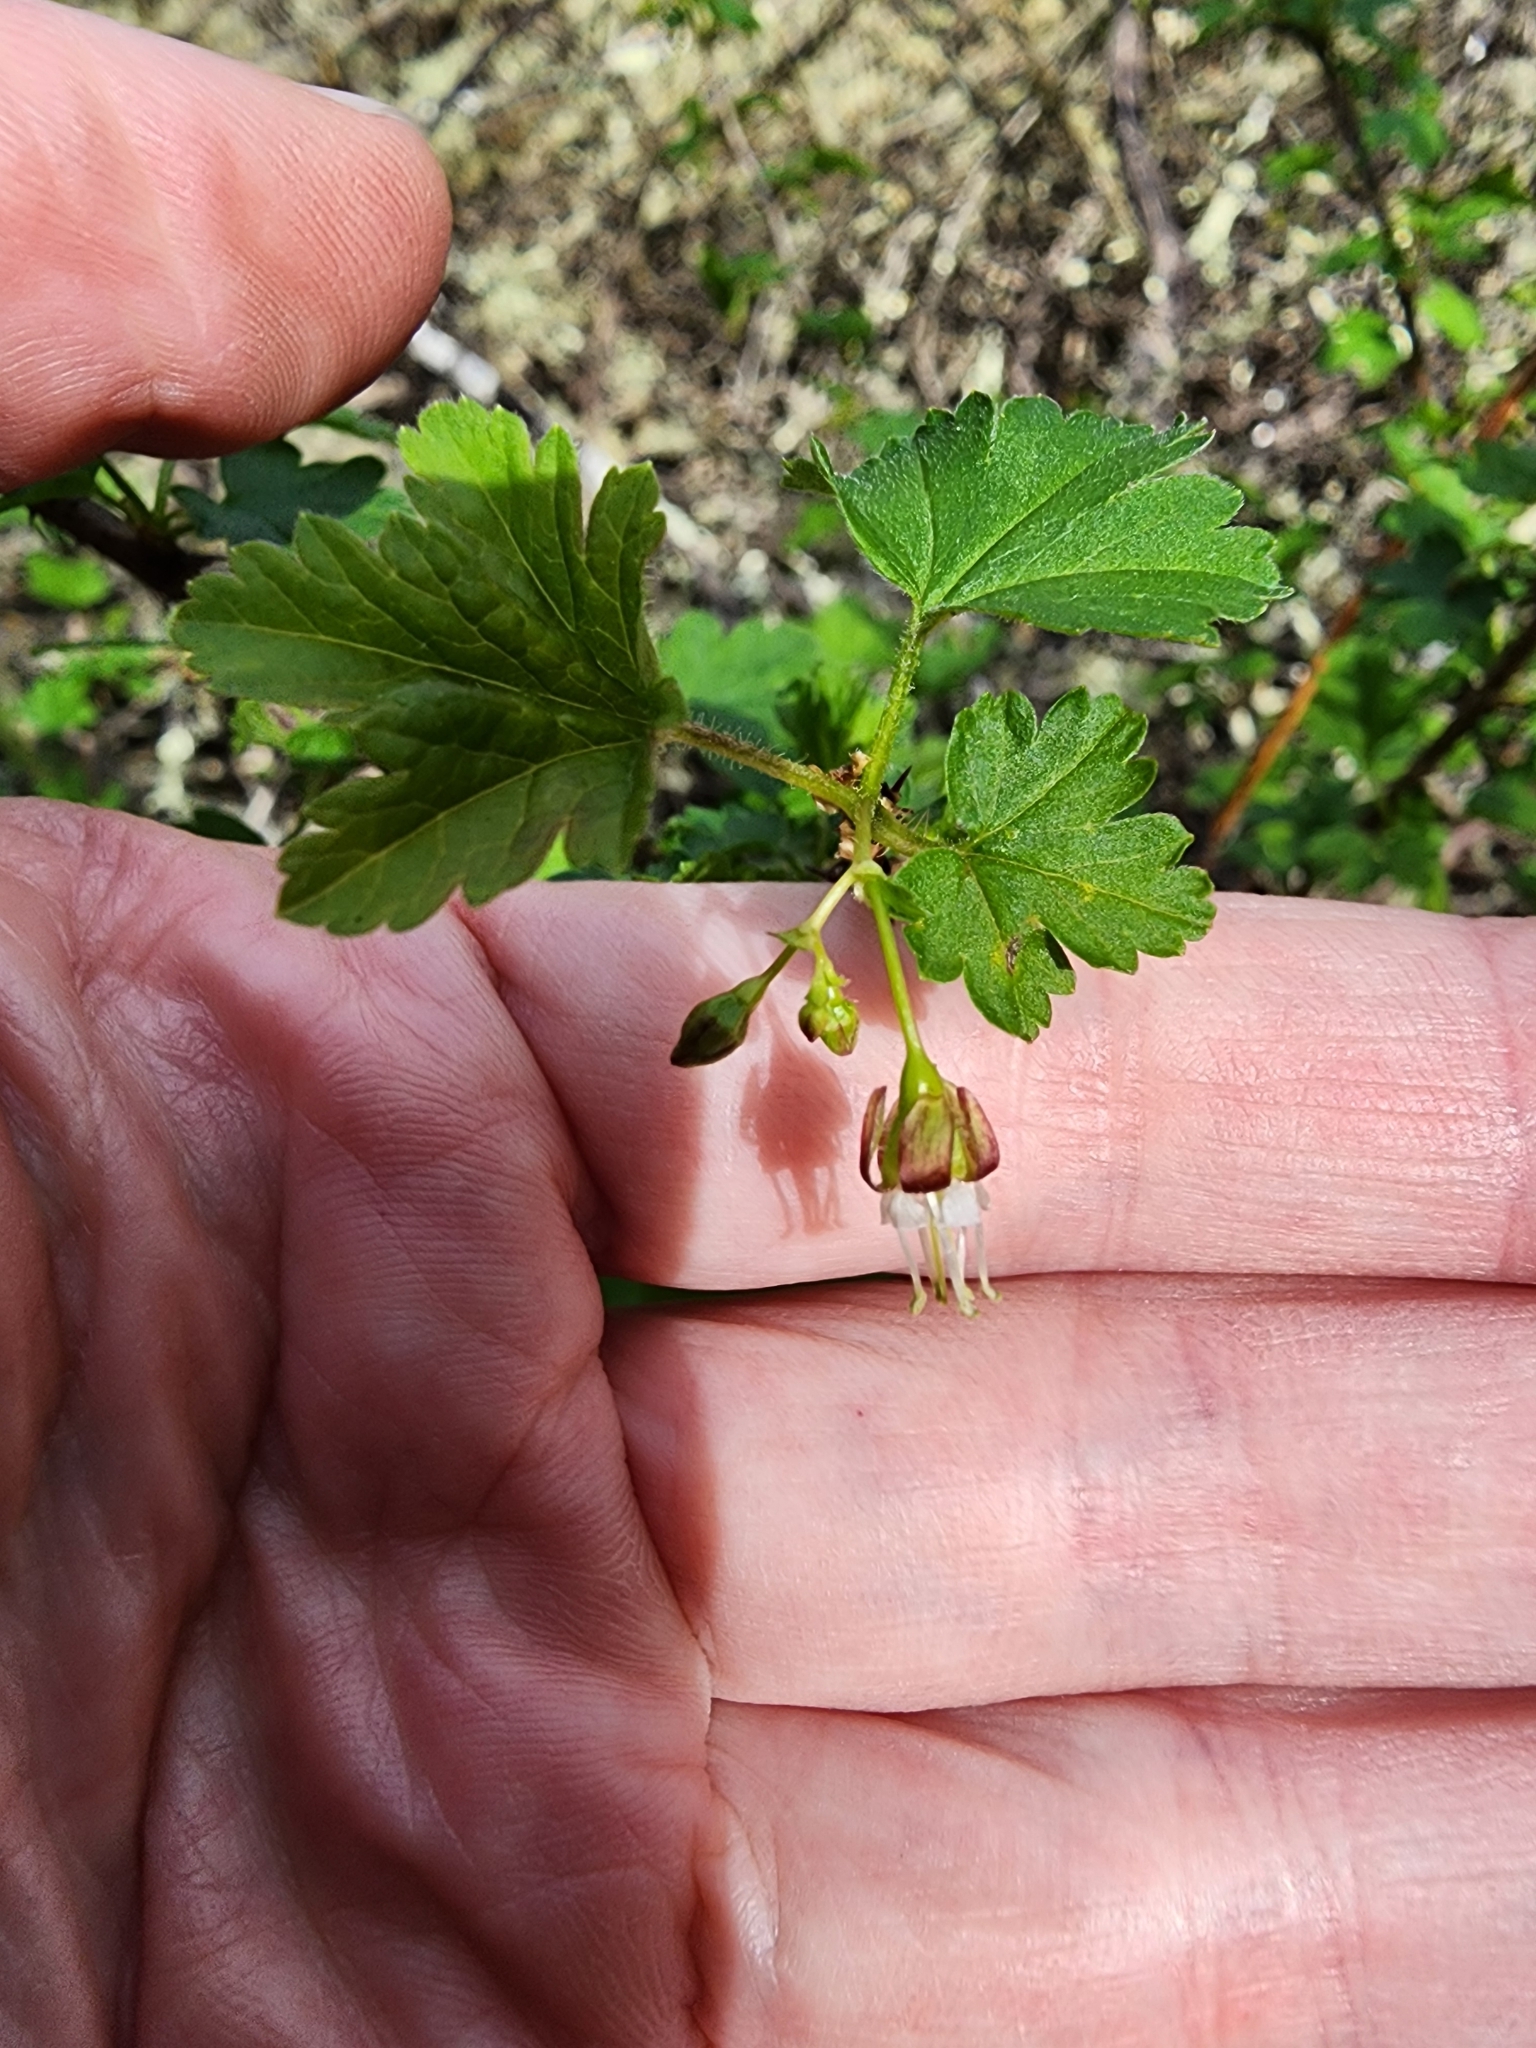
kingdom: Plantae
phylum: Tracheophyta
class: Magnoliopsida
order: Saxifragales
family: Grossulariaceae
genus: Ribes
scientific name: Ribes divaricatum
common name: Wild black gooseberry
